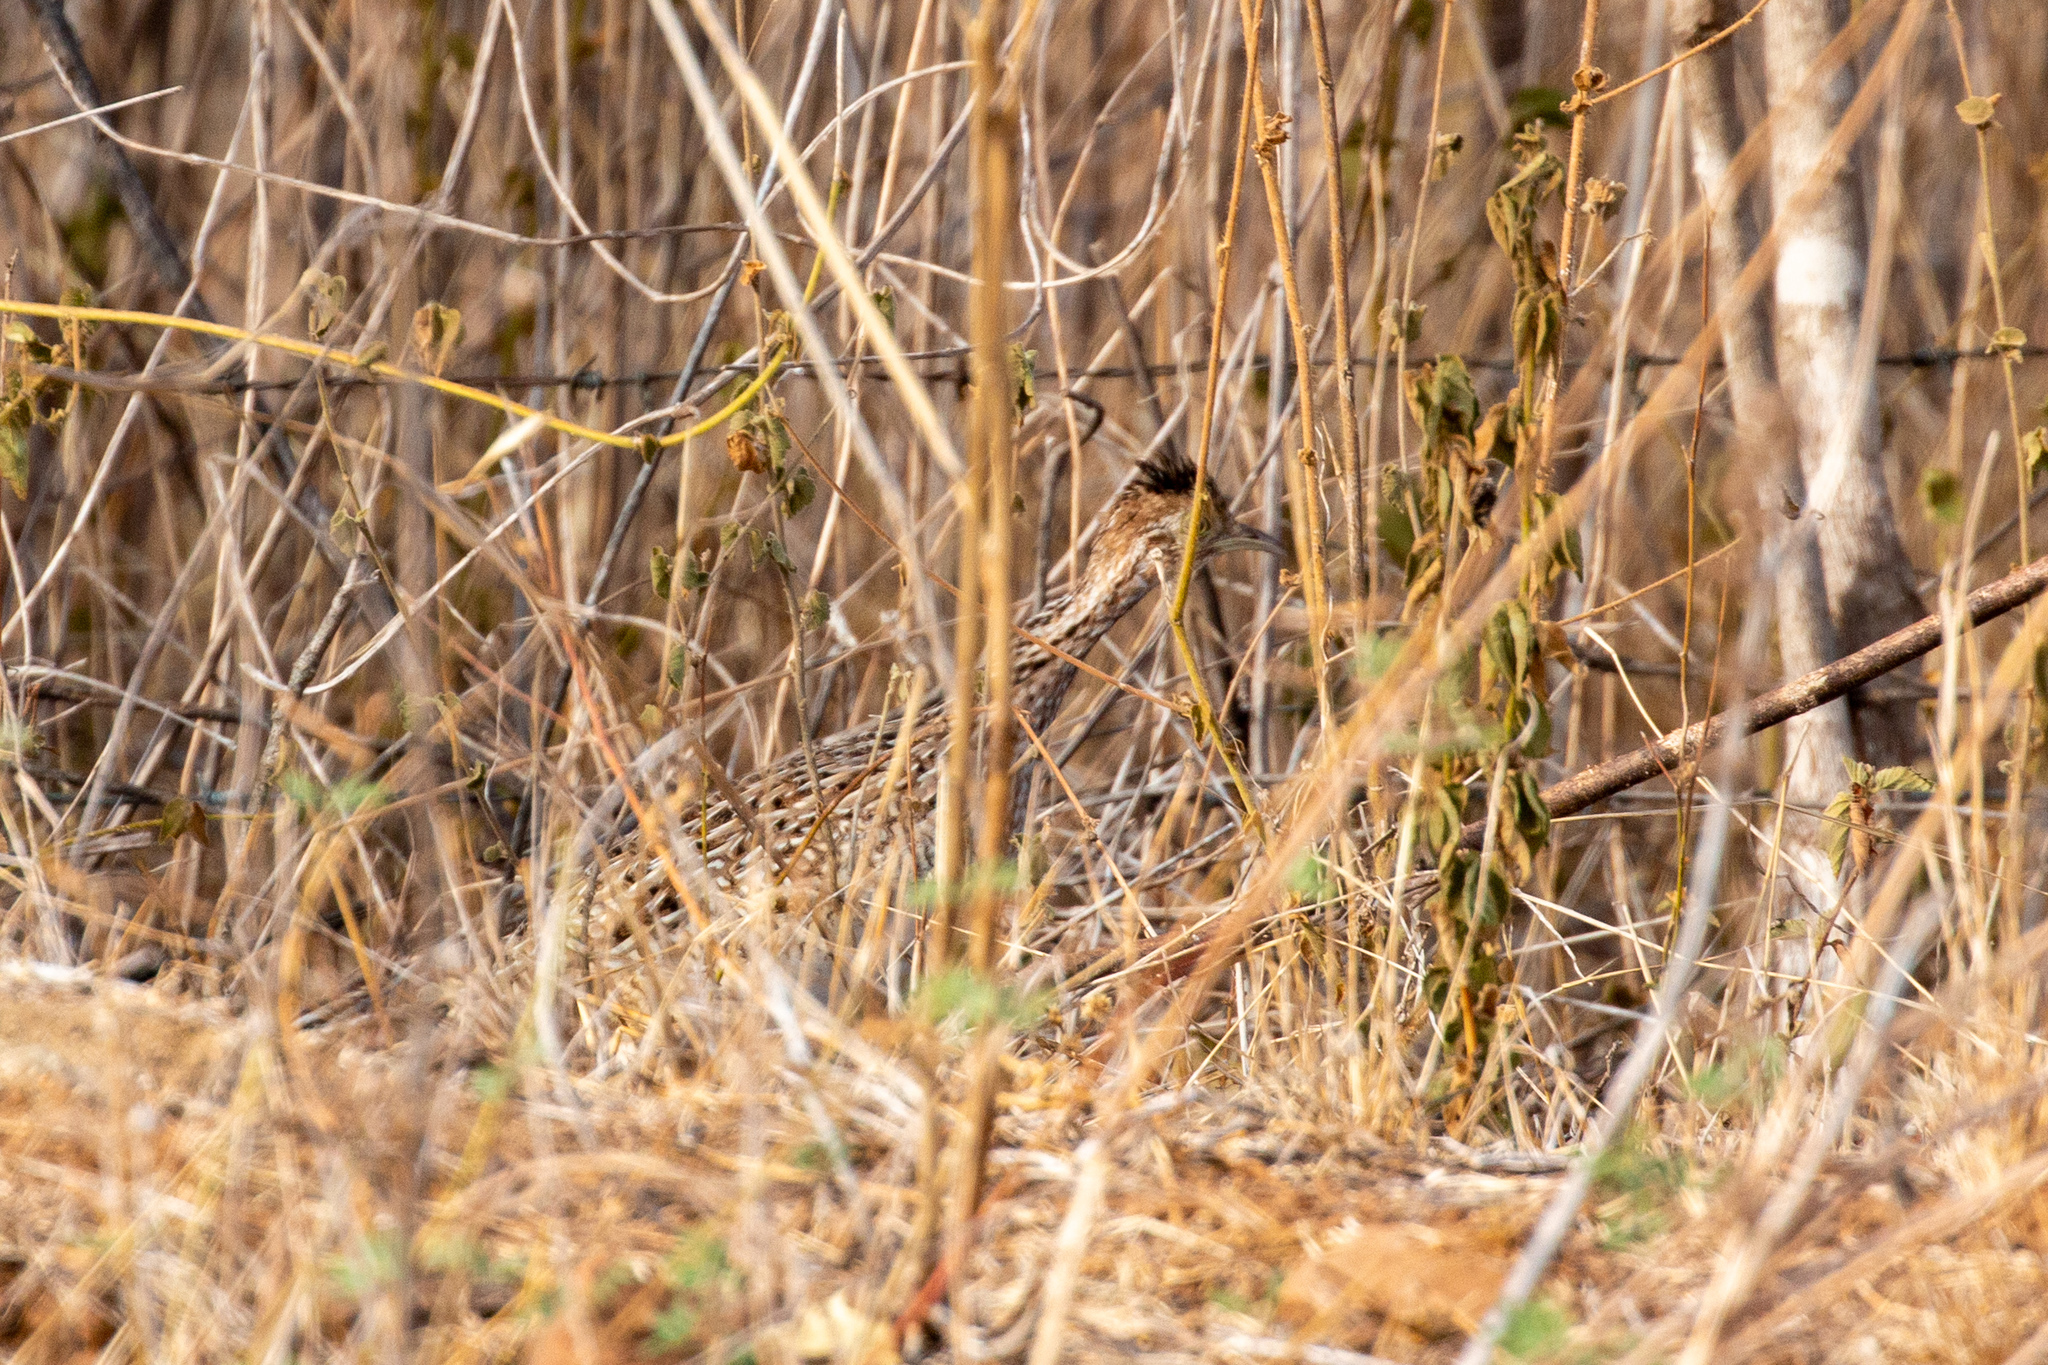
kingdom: Animalia
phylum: Chordata
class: Aves
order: Tinamiformes
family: Tinamidae
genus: Nothura
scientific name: Nothura boraquira
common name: White-bellied nothura
